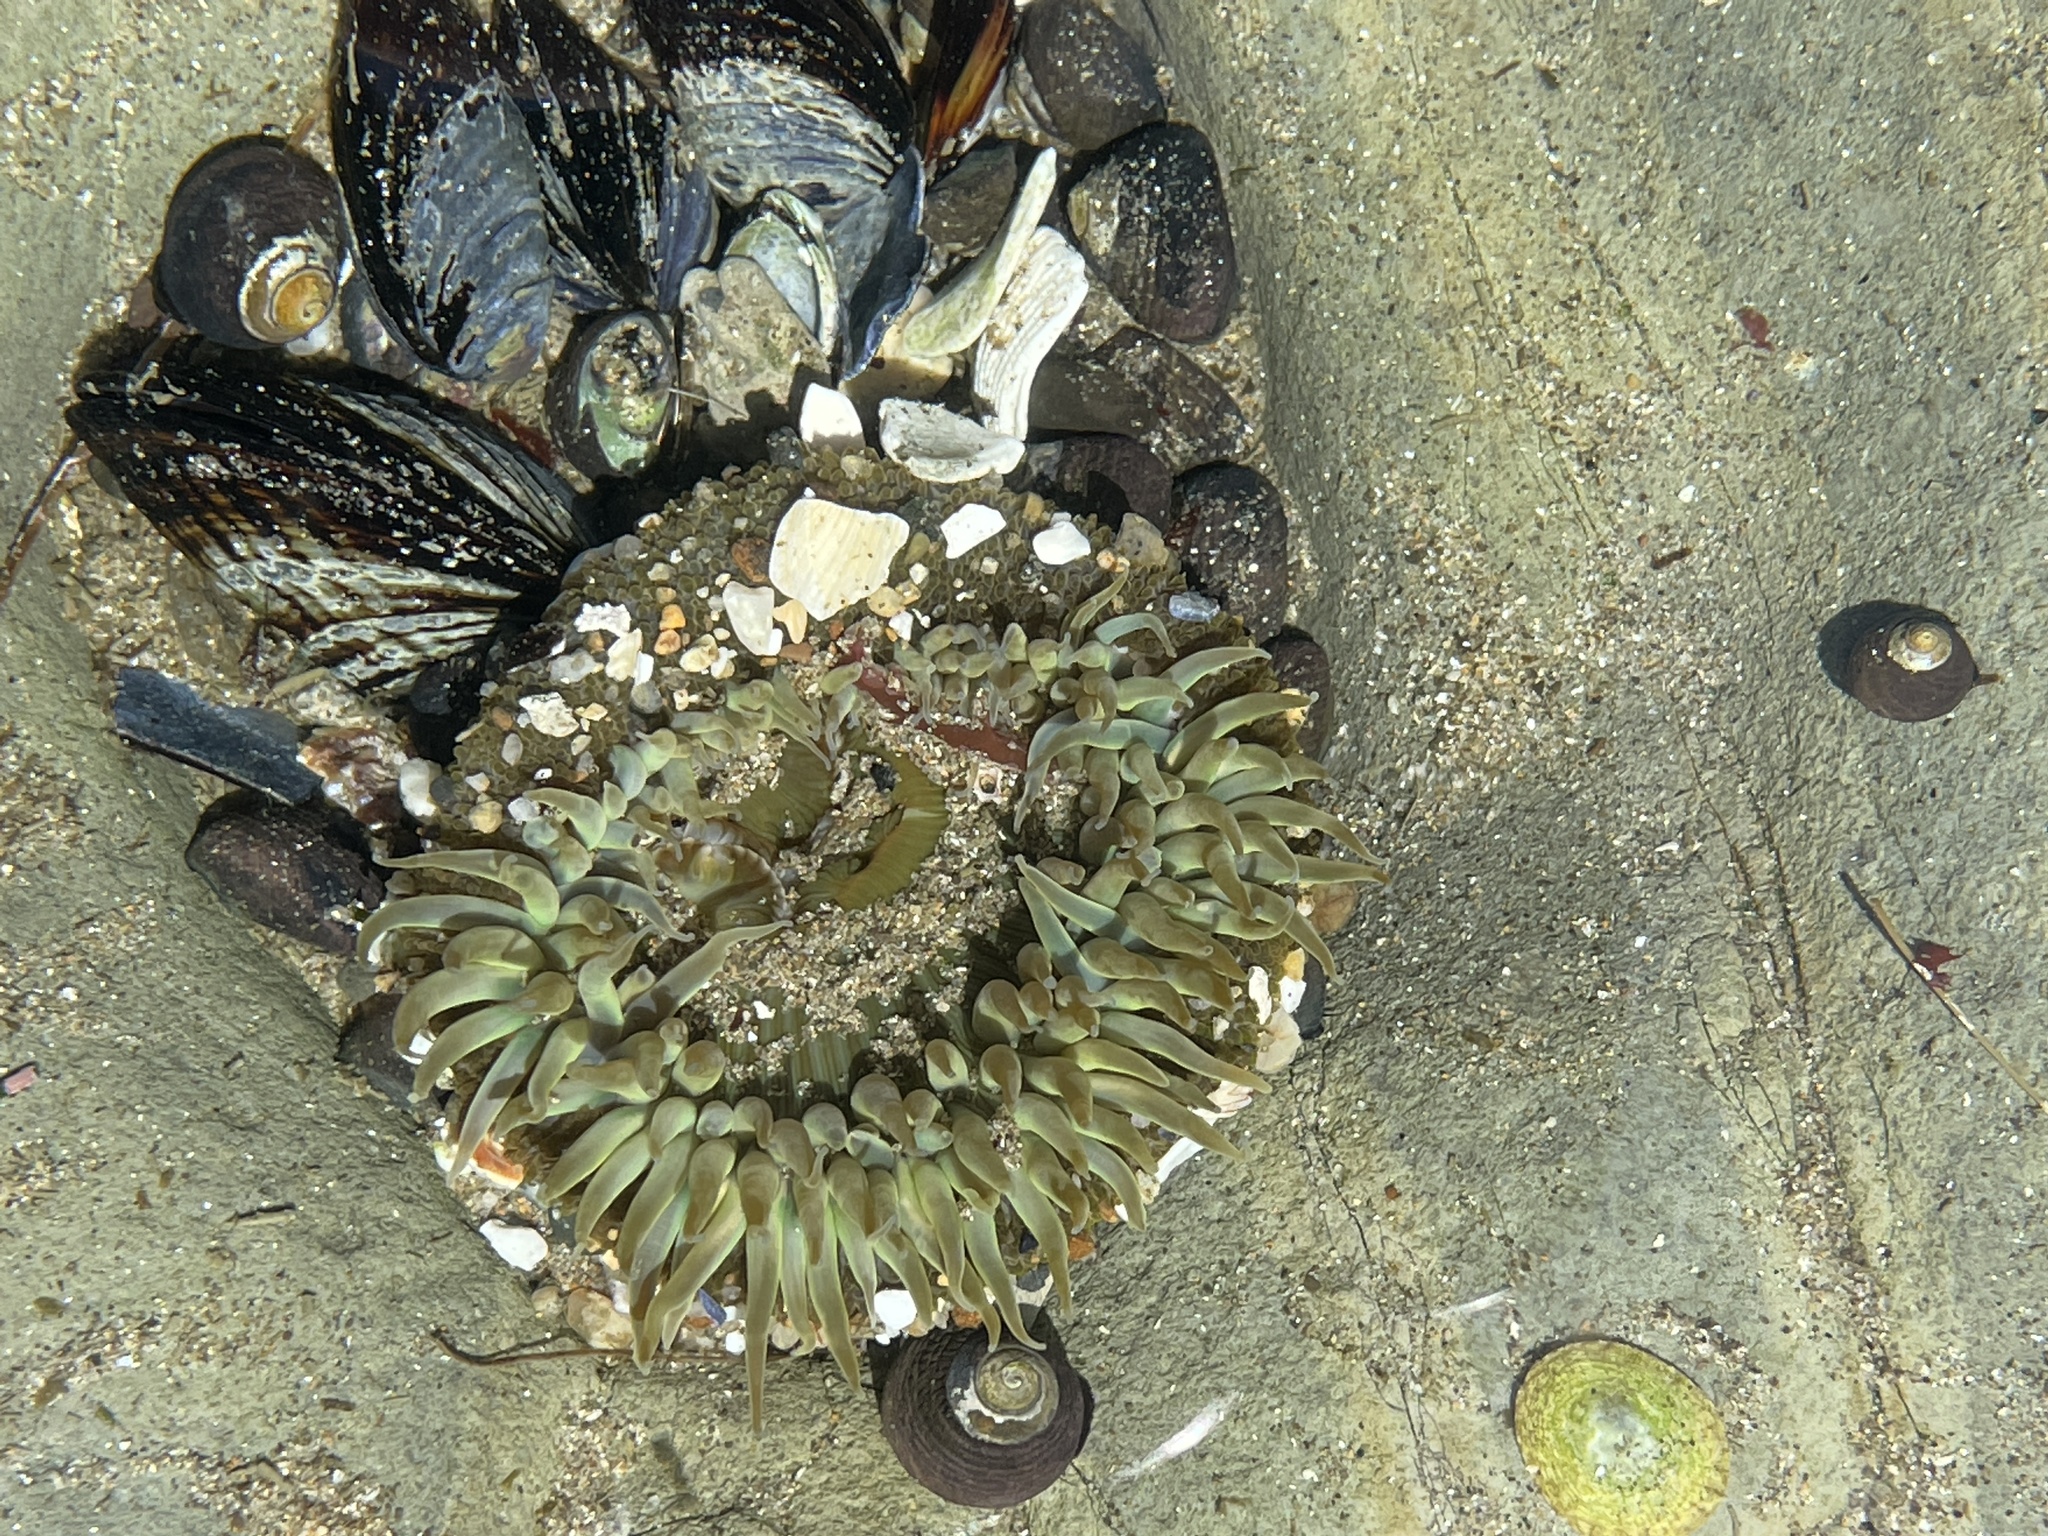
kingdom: Animalia
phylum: Cnidaria
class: Anthozoa
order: Actiniaria
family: Actiniidae
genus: Anthopleura
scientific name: Anthopleura sola
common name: Sun anemone
